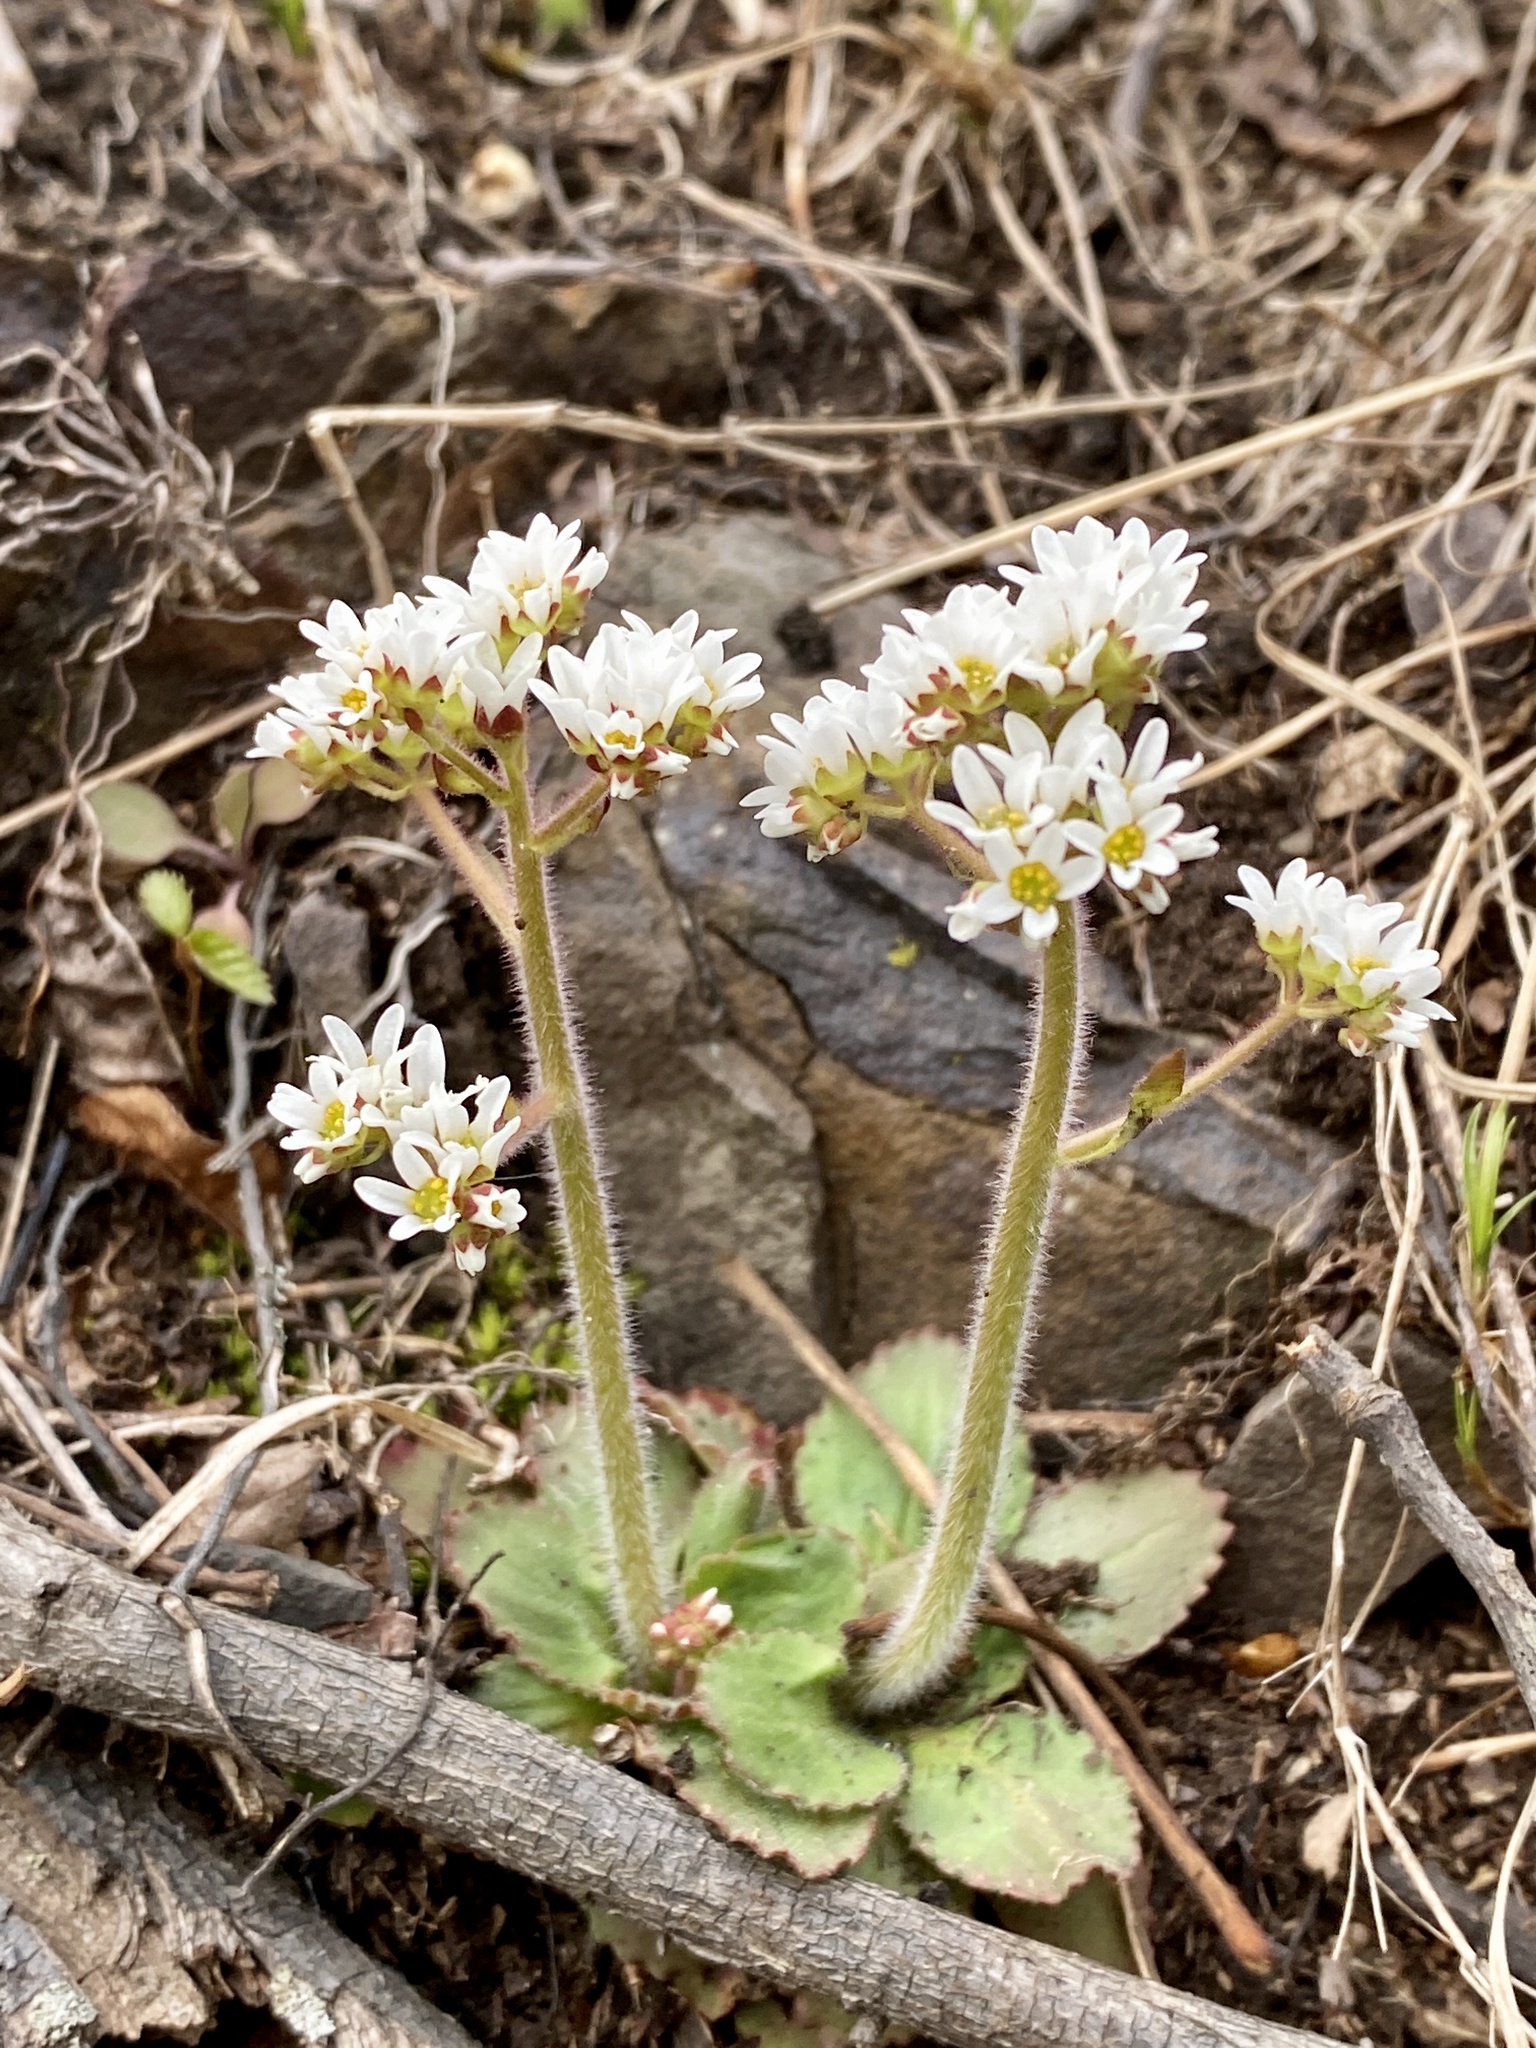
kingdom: Plantae
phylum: Tracheophyta
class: Magnoliopsida
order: Saxifragales
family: Saxifragaceae
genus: Micranthes
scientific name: Micranthes virginiensis
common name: Early saxifrage
